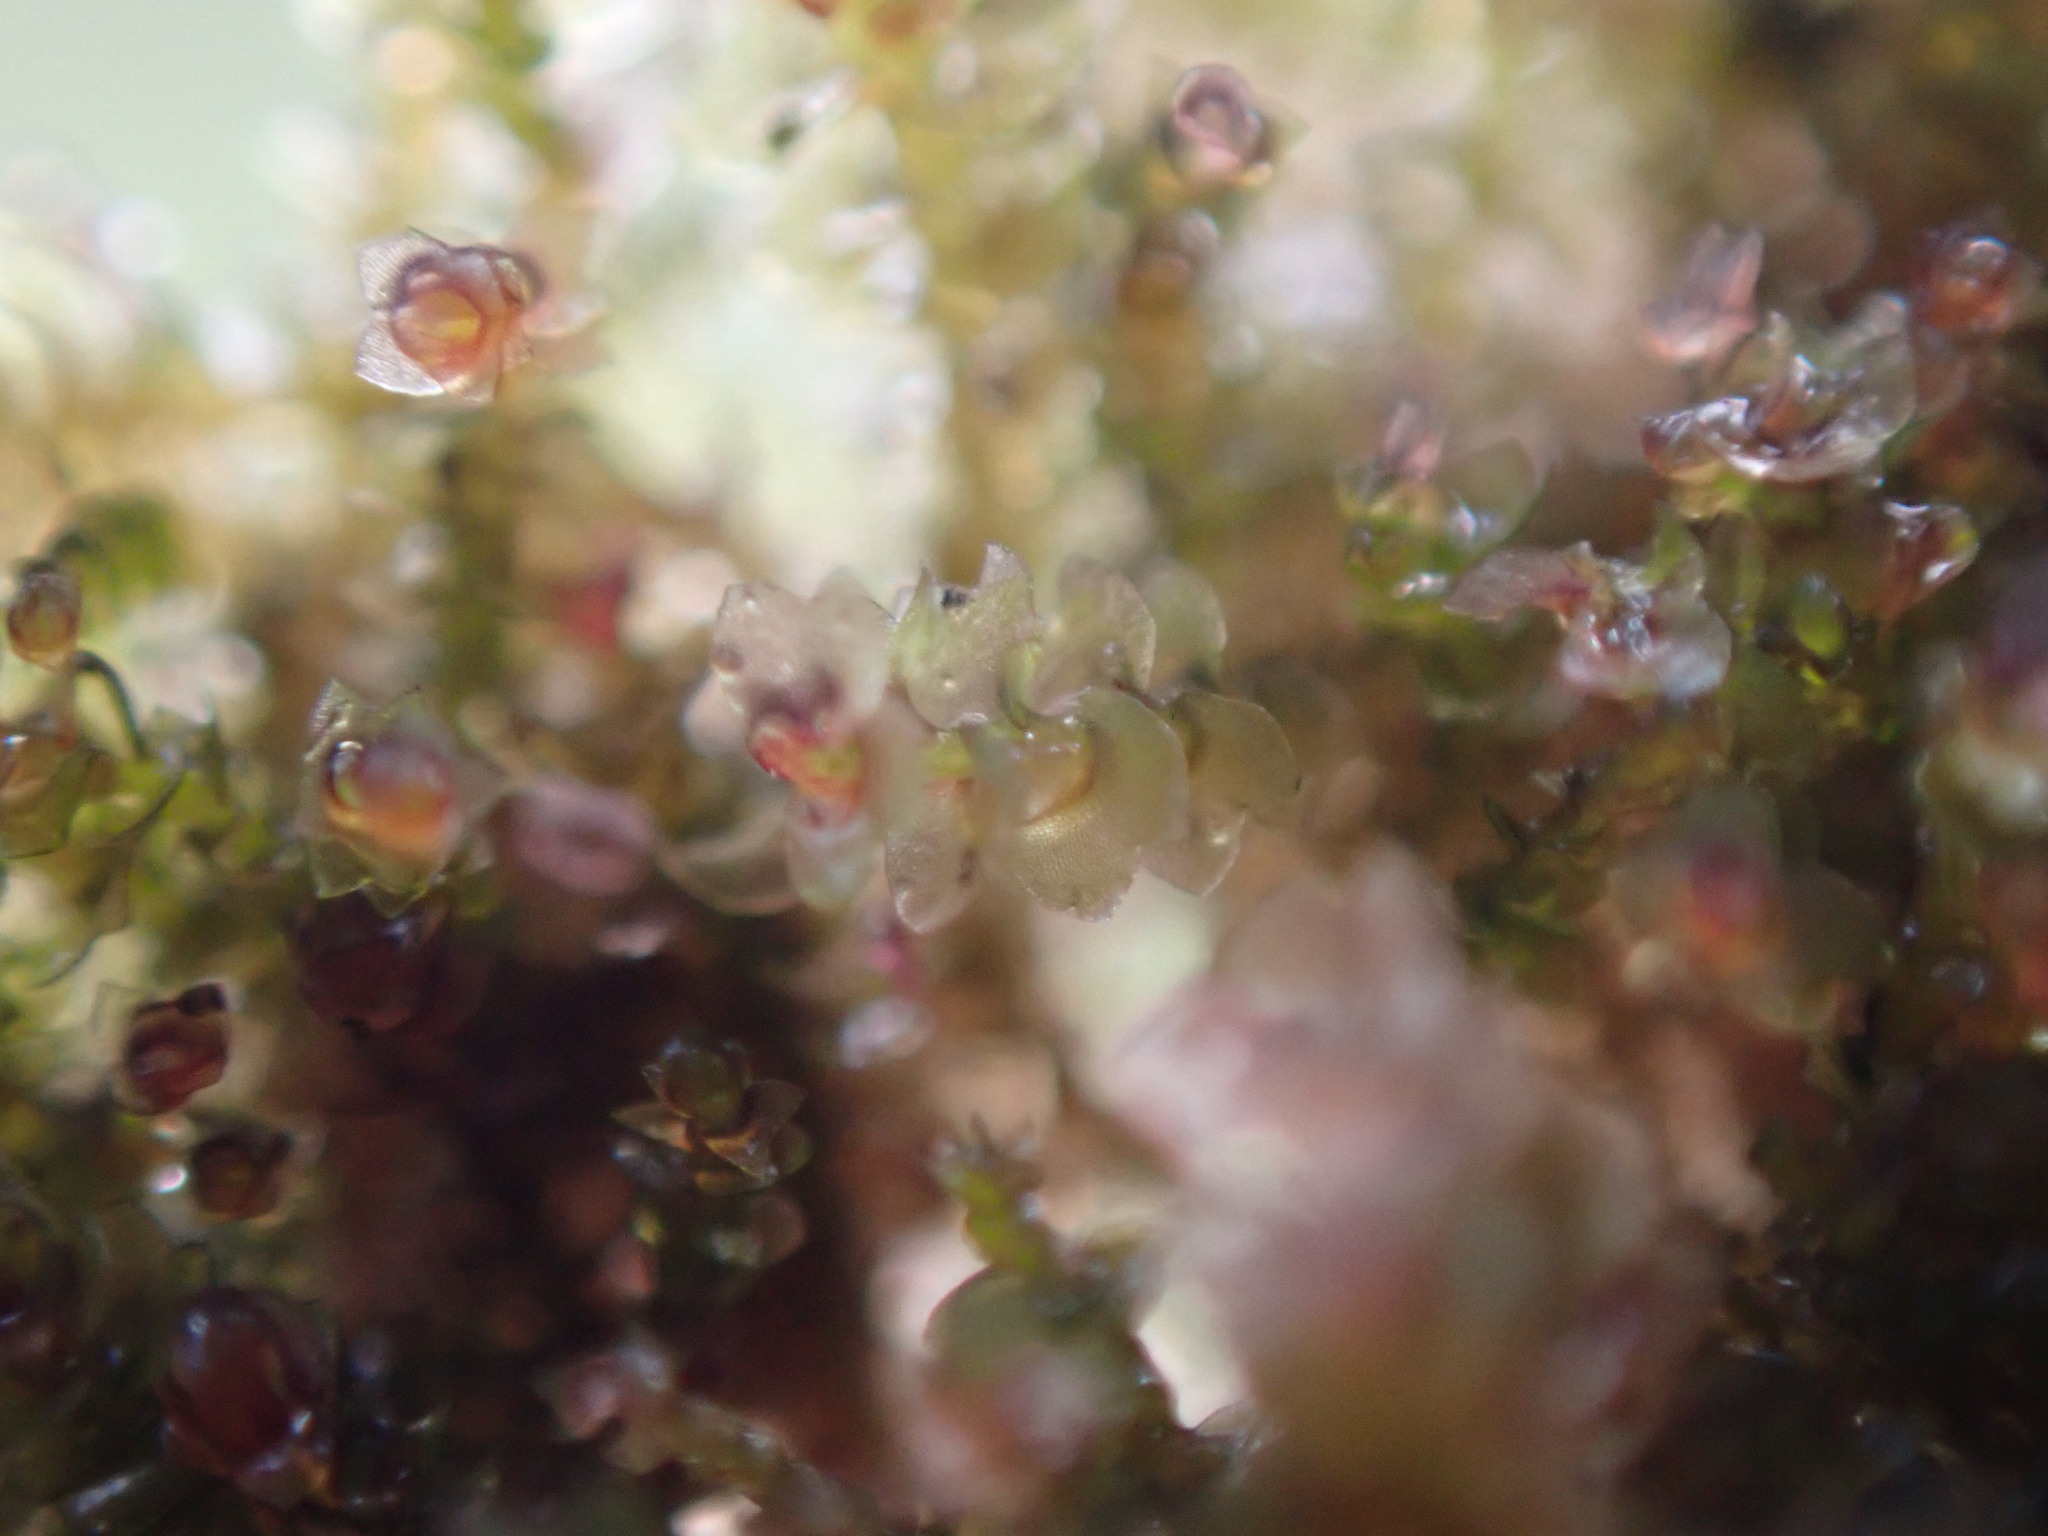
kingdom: Plantae
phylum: Marchantiophyta
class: Jungermanniopsida
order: Jungermanniales
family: Gymnomitriaceae
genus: Marsupella
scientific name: Marsupella emarginata
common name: Notched rustwort
